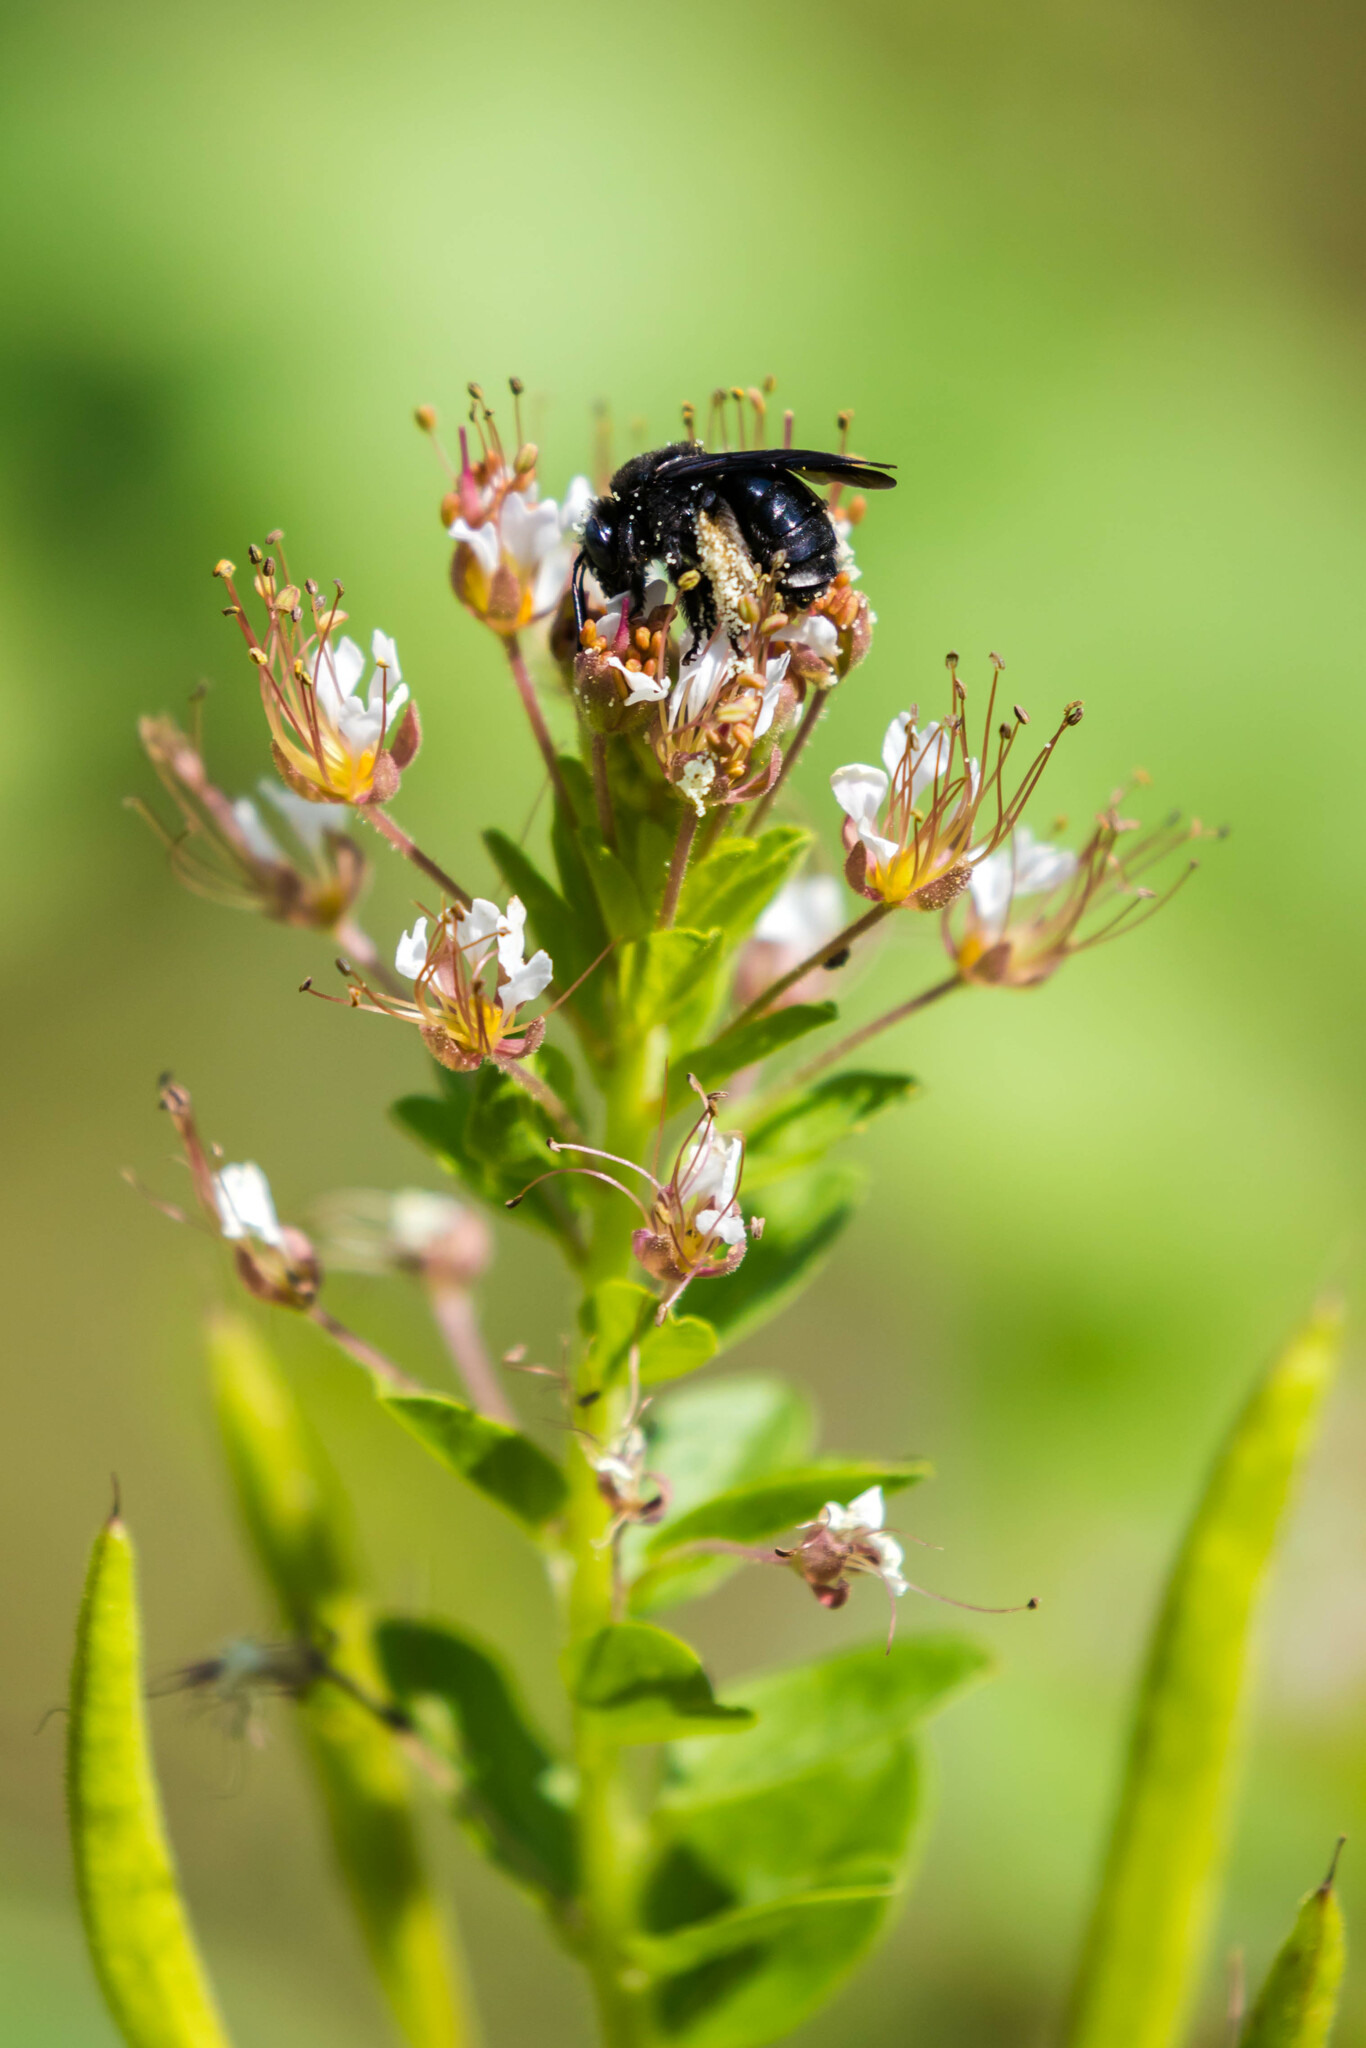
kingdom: Animalia
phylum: Arthropoda
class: Insecta
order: Hymenoptera
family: Apidae
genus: Melissodes
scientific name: Melissodes bimaculatus
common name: Two-spotted long-horned bee
